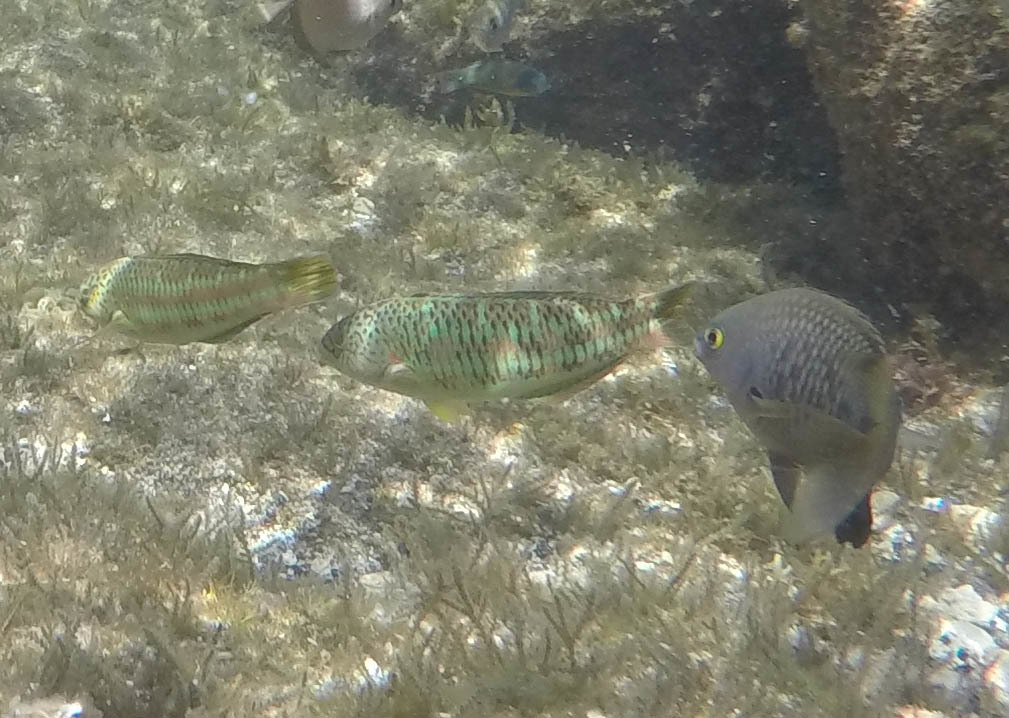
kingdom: Animalia
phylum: Chordata
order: Perciformes
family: Labridae
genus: Thalassoma
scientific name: Thalassoma purpureum
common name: Parrotfish
